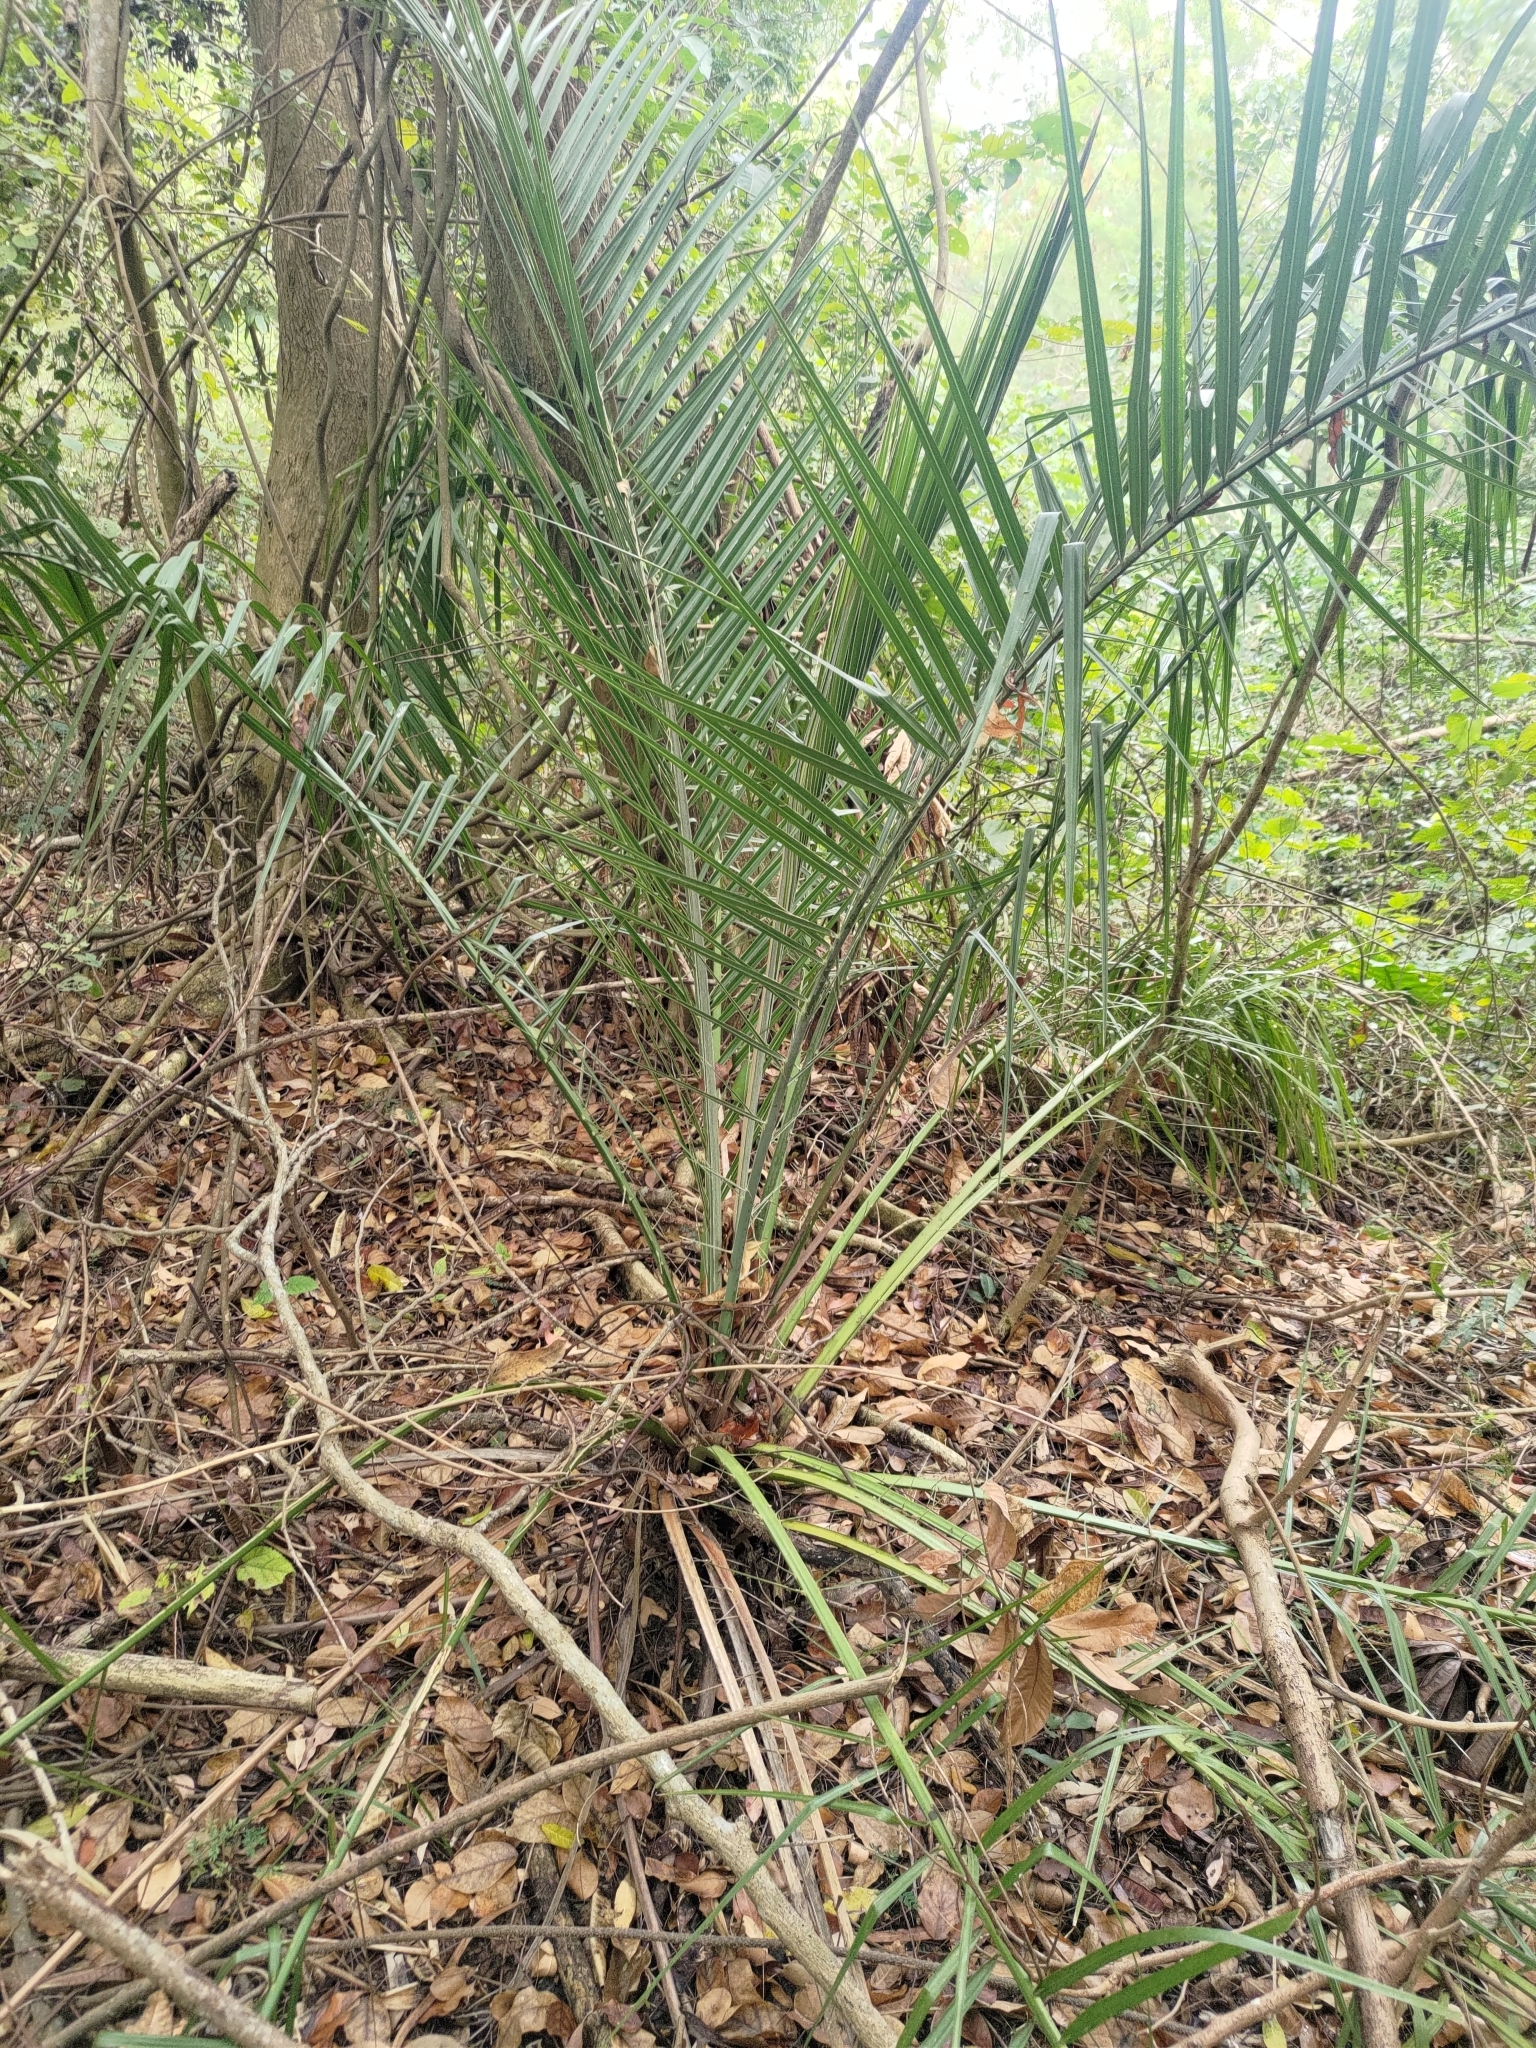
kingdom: Plantae
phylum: Tracheophyta
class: Liliopsida
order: Arecales
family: Arecaceae
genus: Phoenix
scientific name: Phoenix loureiroi
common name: Loureiro's palm
